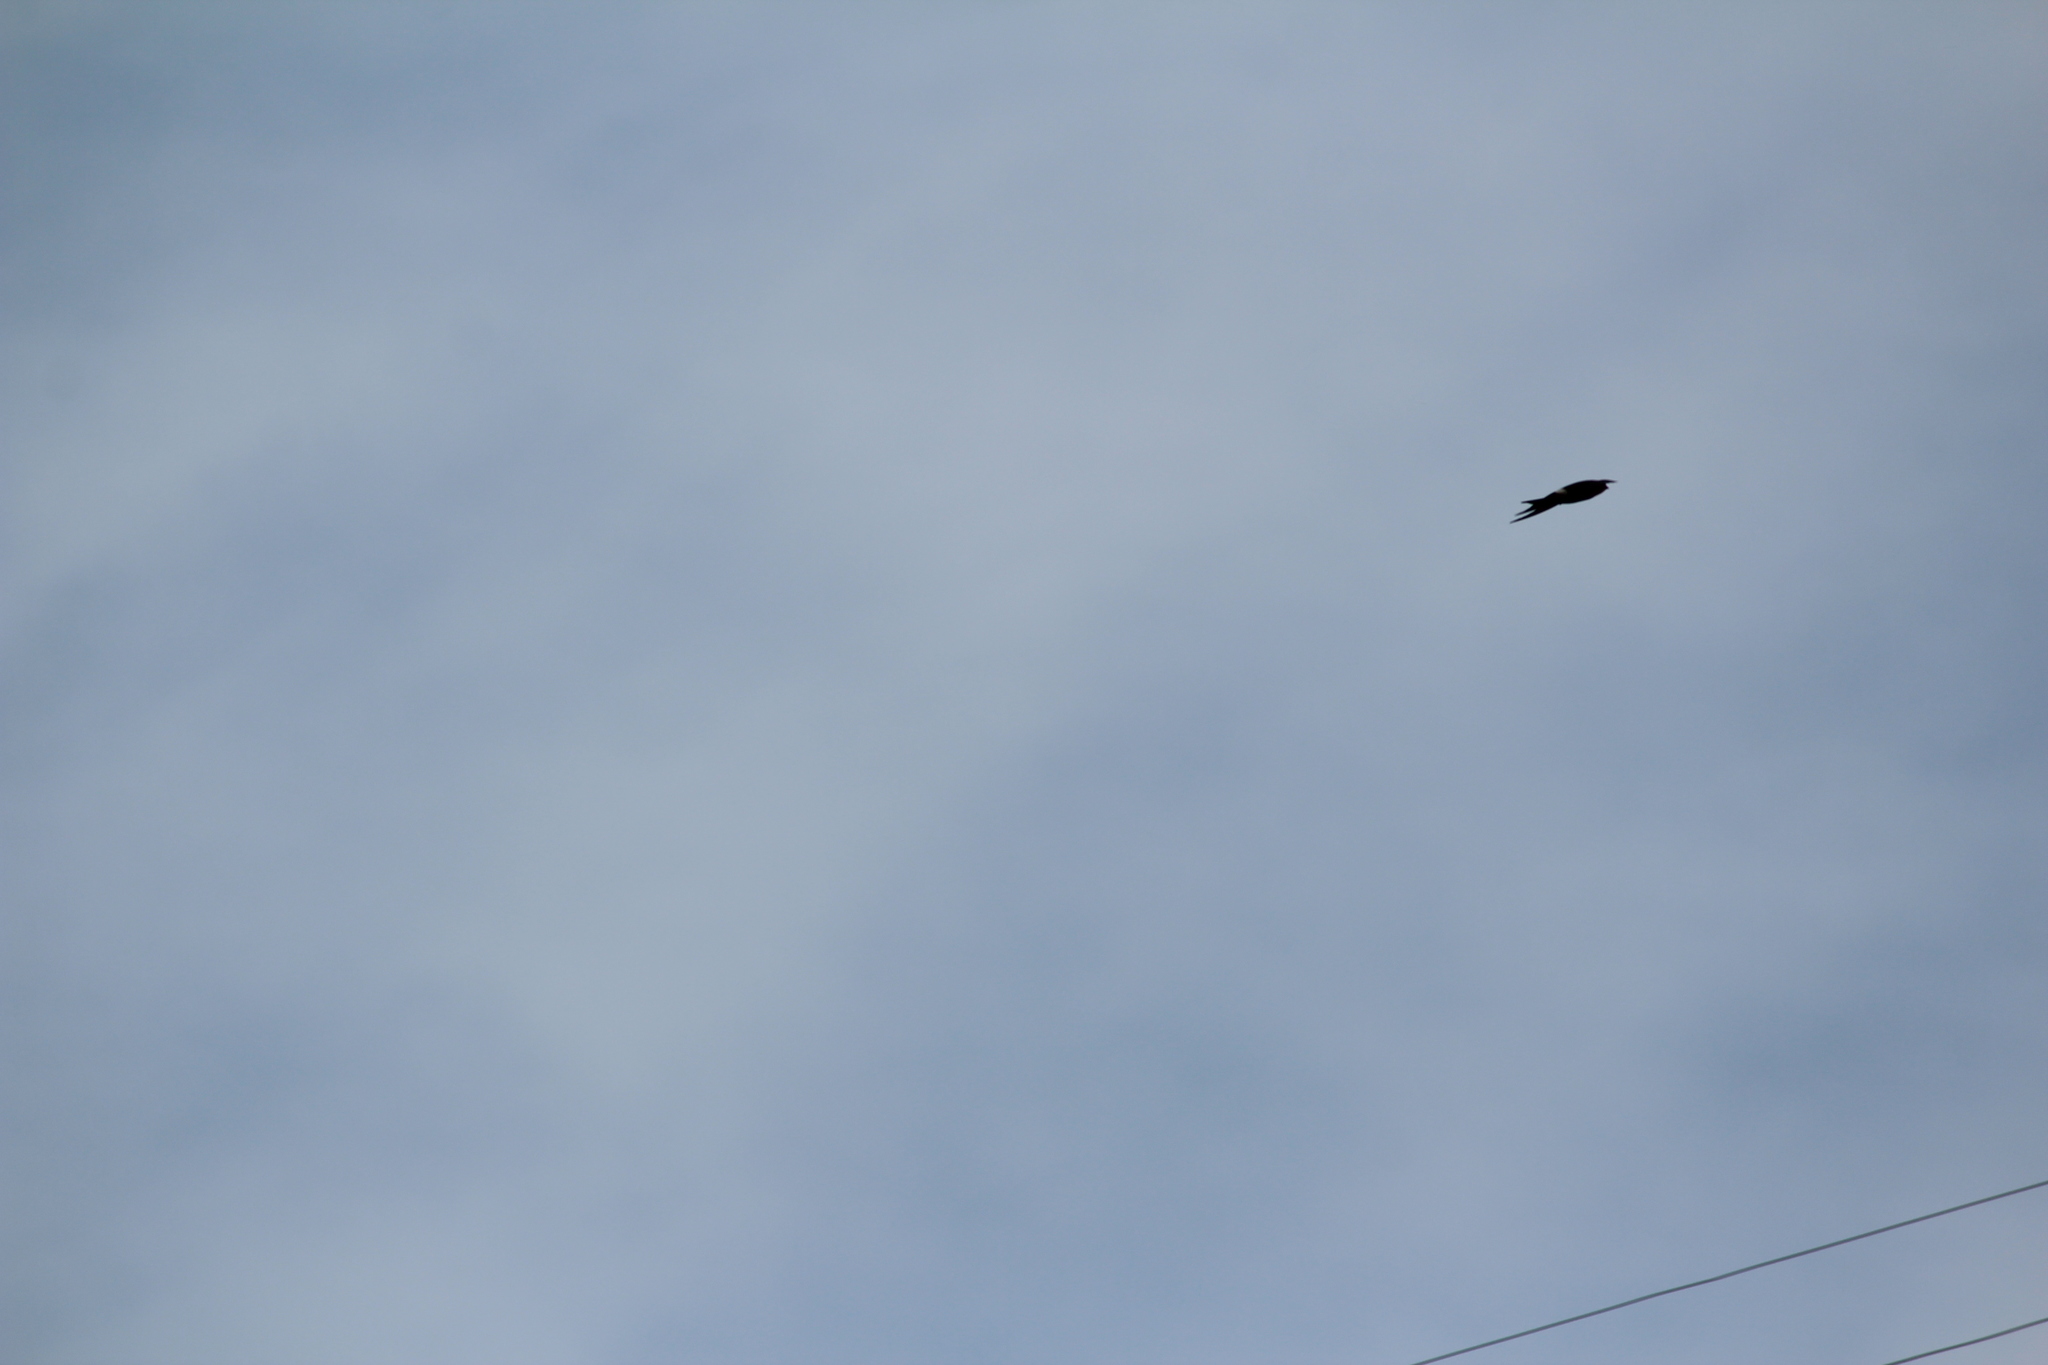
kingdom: Animalia
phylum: Chordata
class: Aves
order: Apodiformes
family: Apodidae
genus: Apus
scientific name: Apus pacificus
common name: Pacific swift
